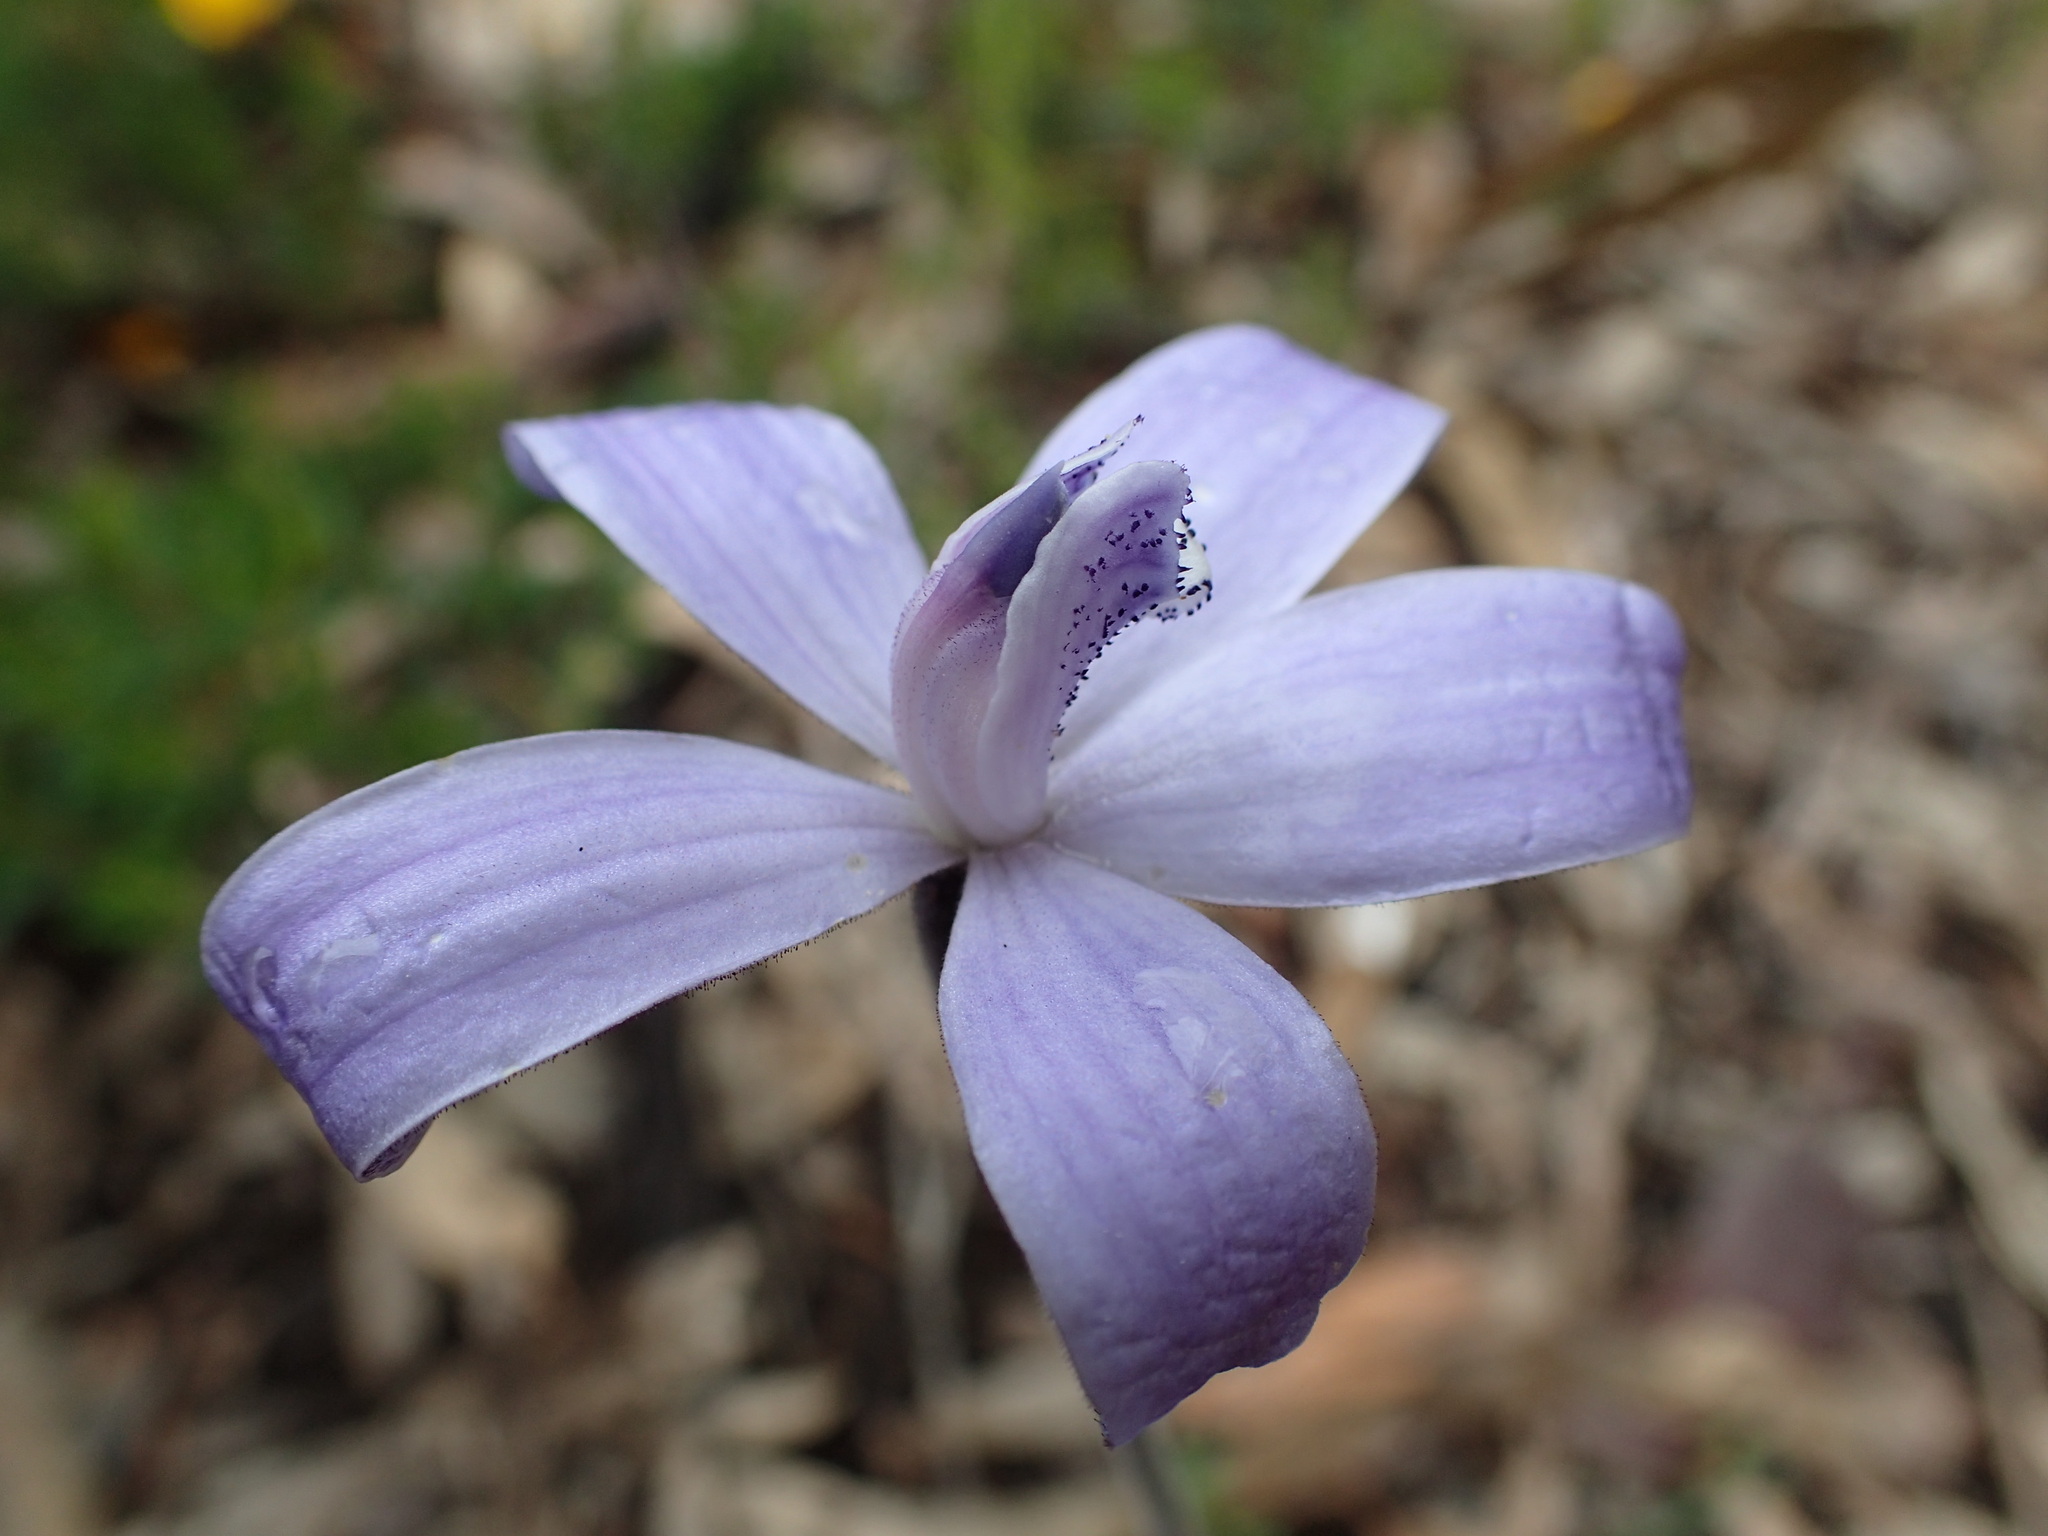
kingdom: Plantae
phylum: Tracheophyta
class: Liliopsida
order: Asparagales
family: Orchidaceae
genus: Caladenia
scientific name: Caladenia sericea
